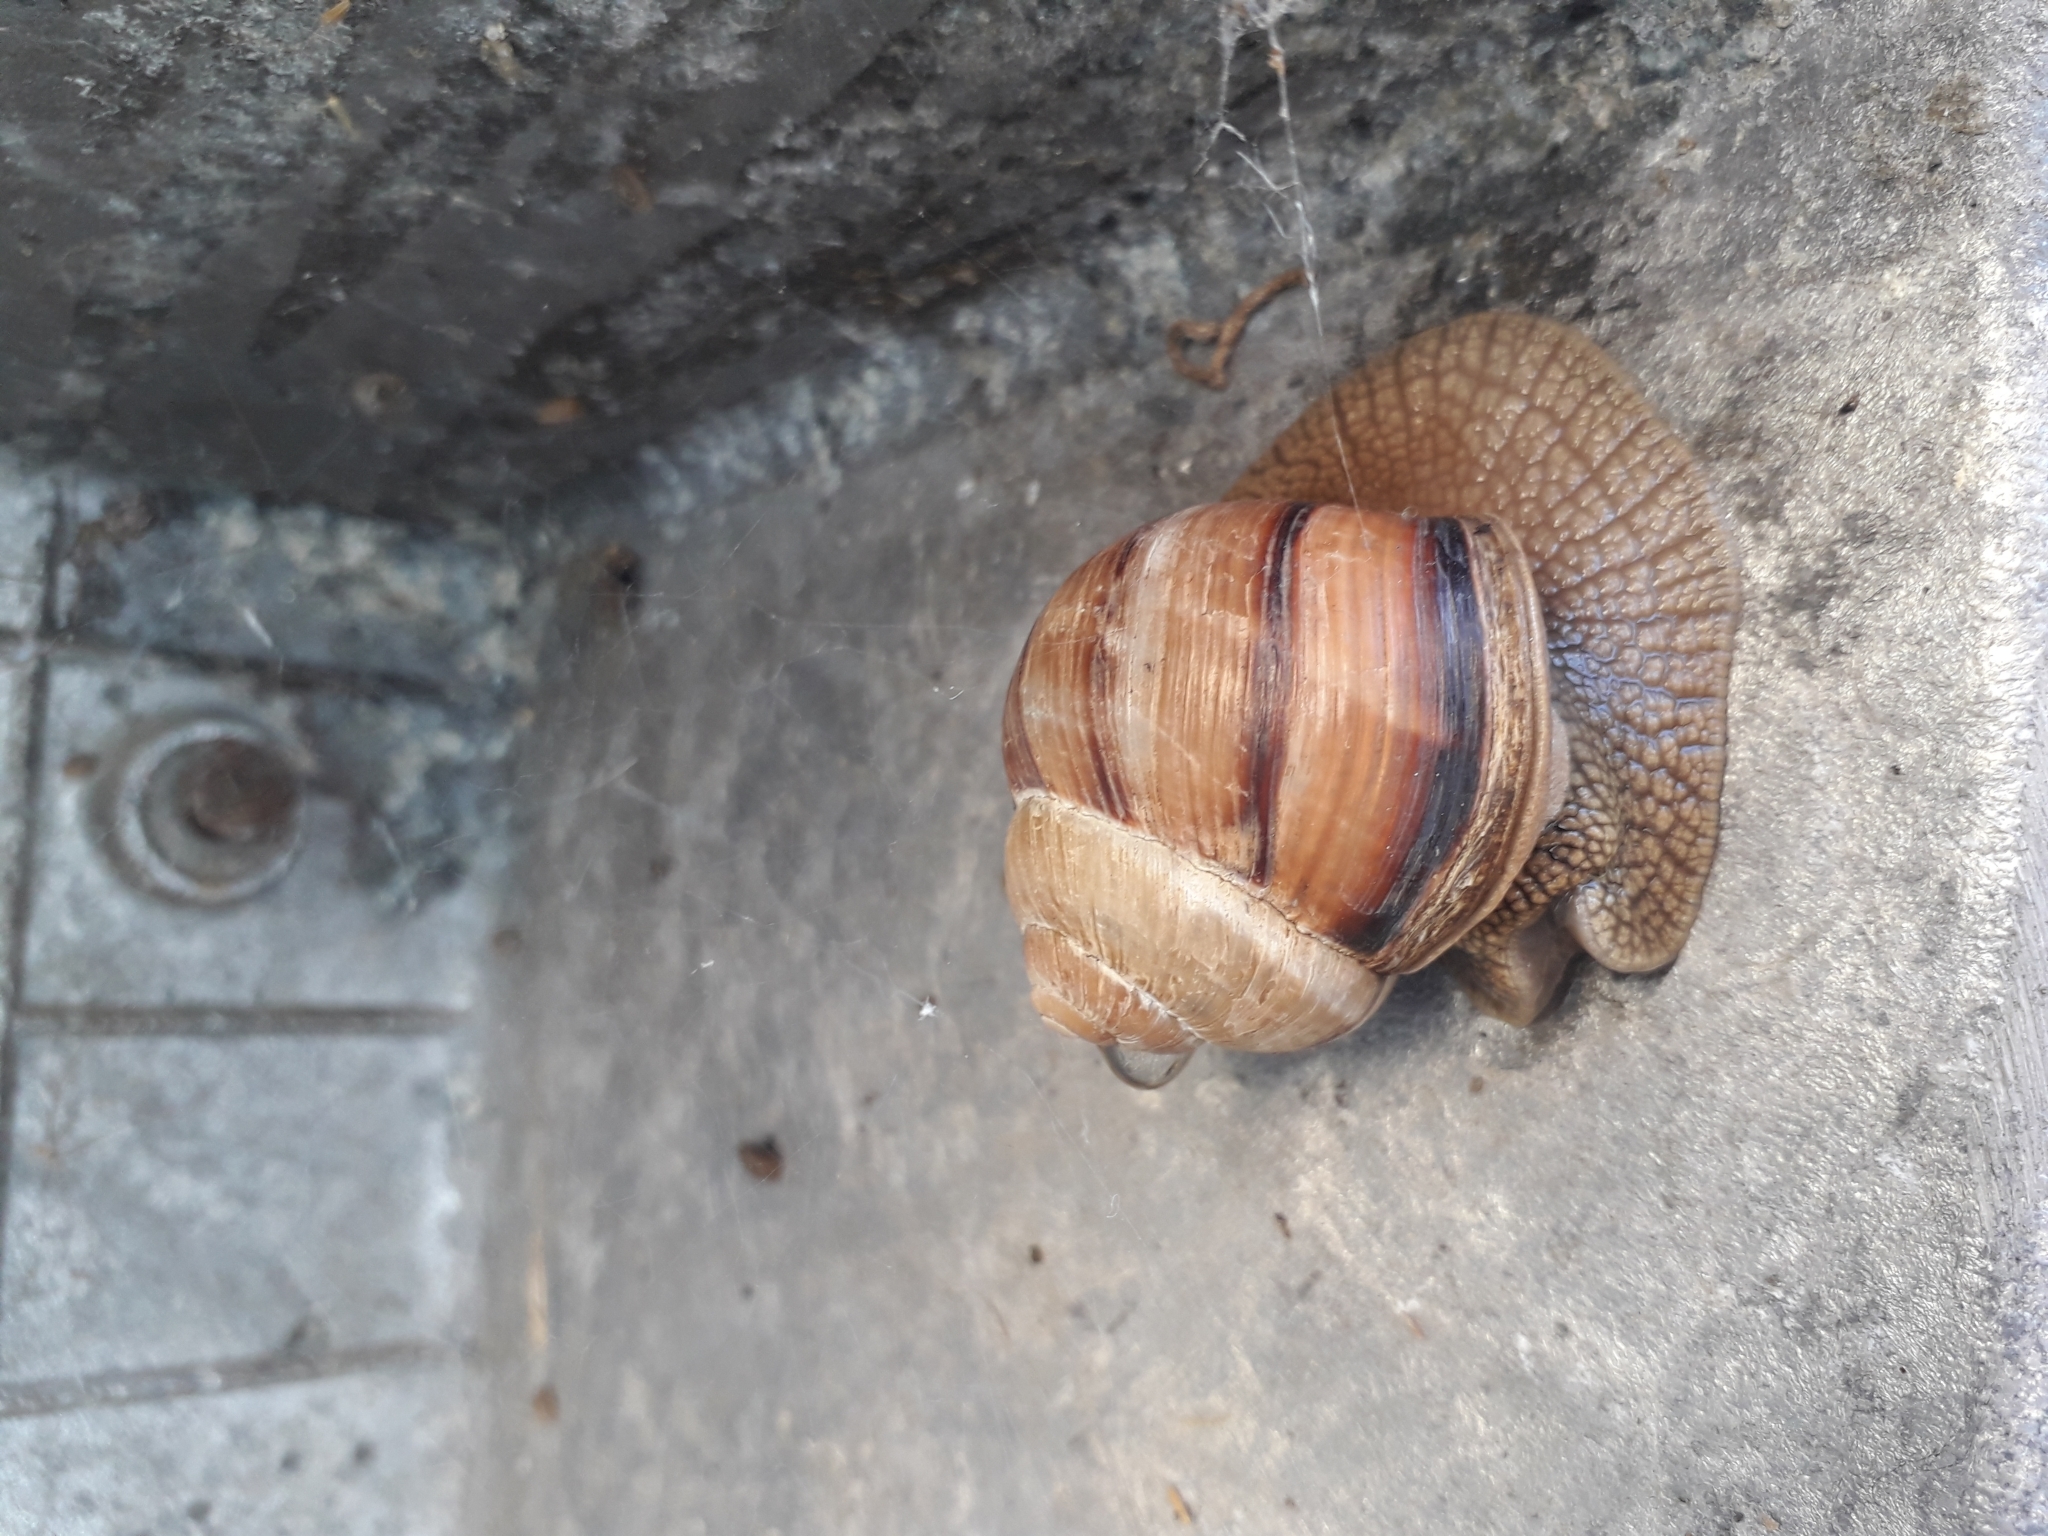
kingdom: Animalia
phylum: Mollusca
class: Gastropoda
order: Stylommatophora
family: Helicidae
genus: Helix
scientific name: Helix lucorum
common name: Turkish snail
